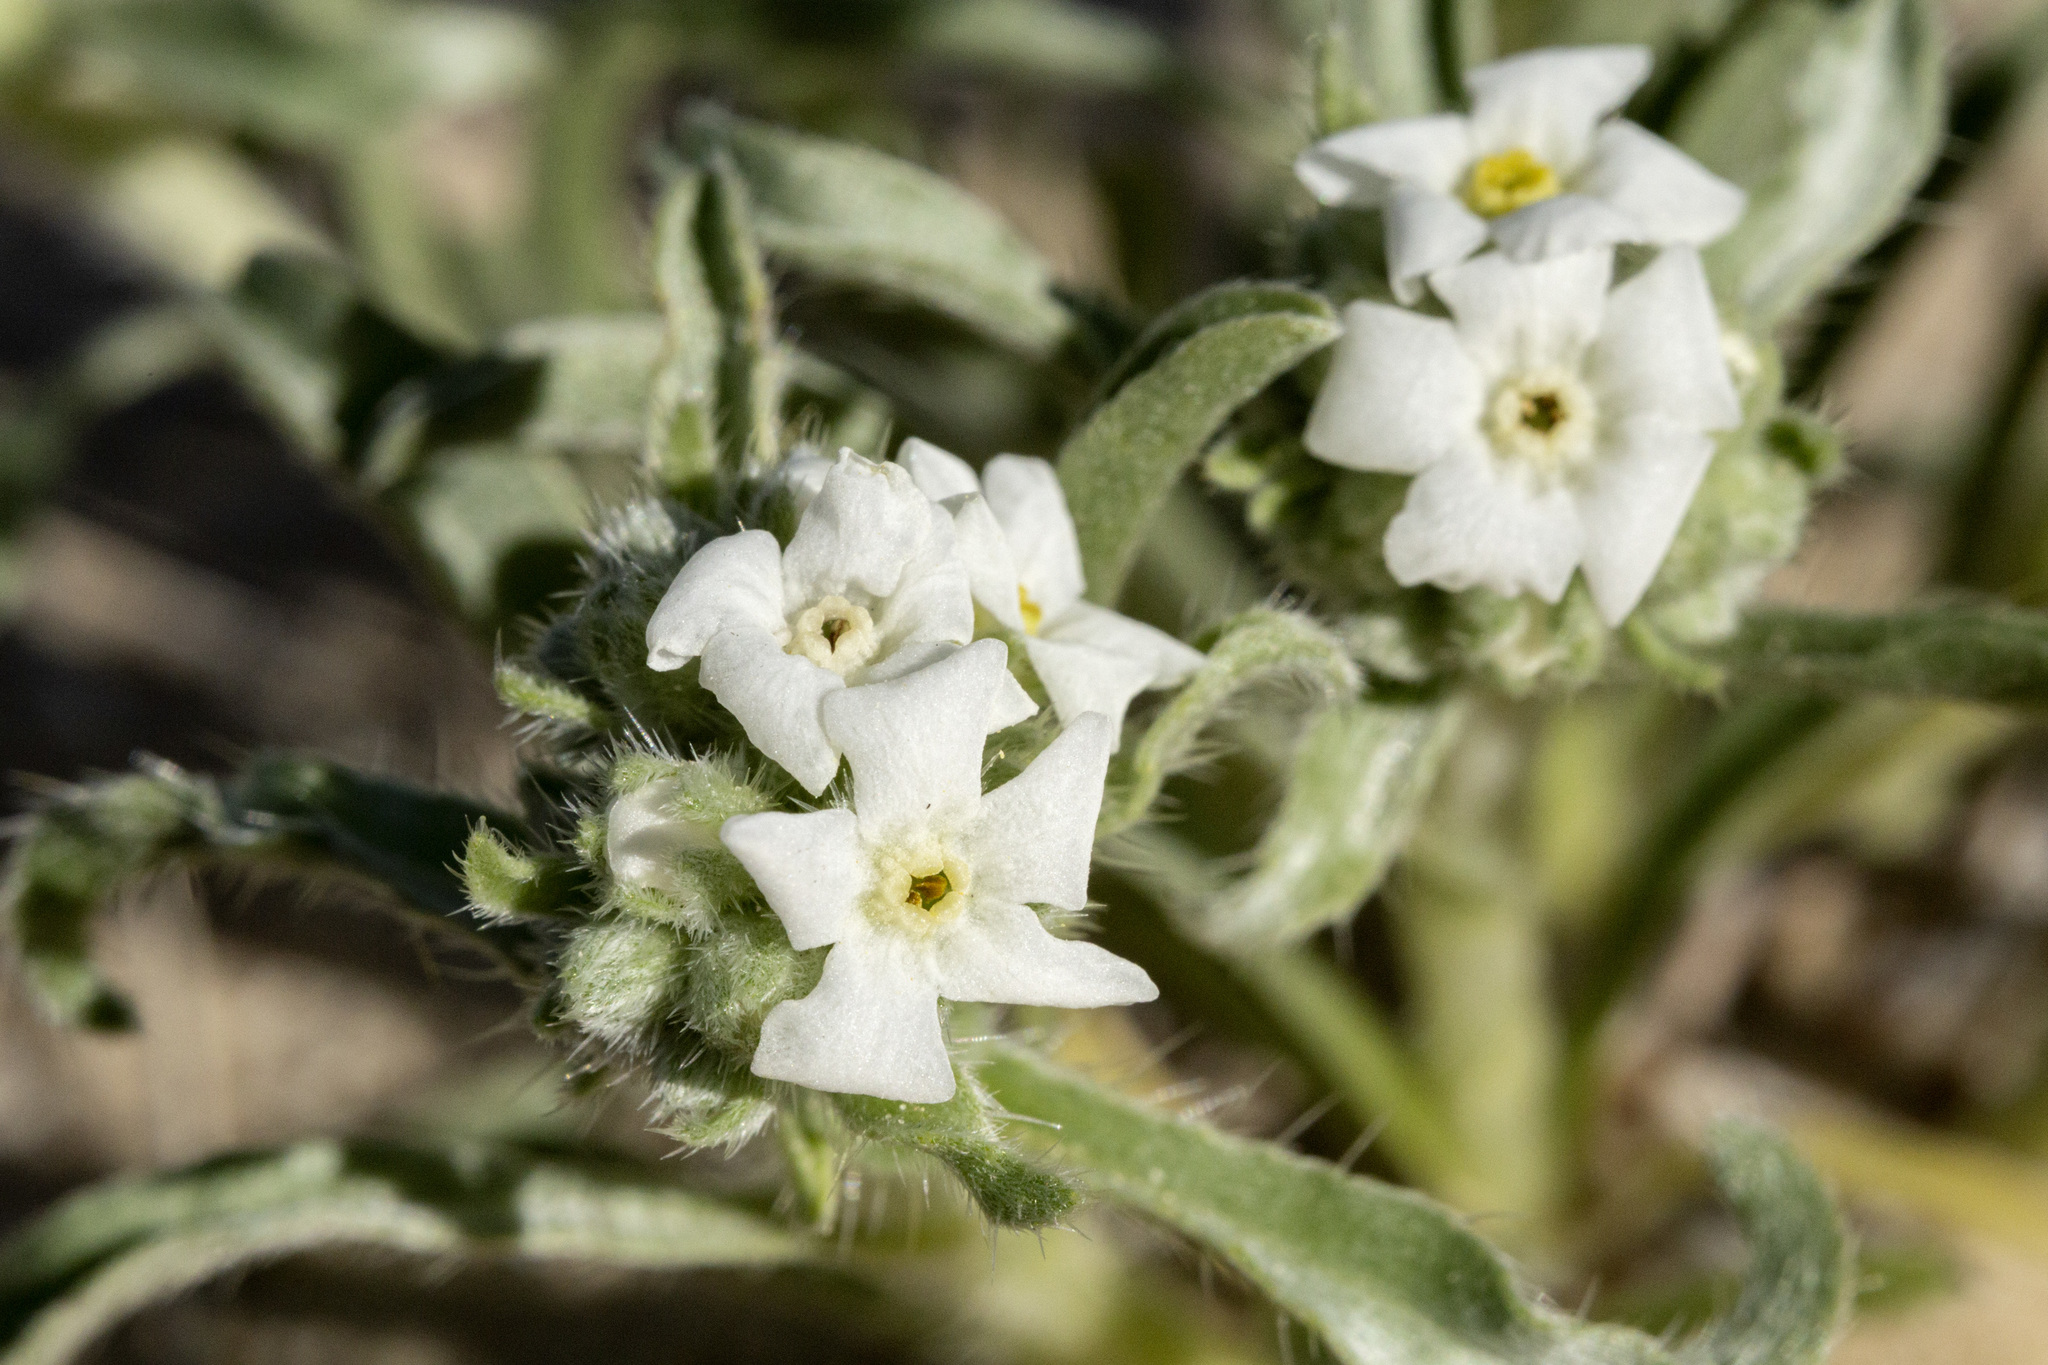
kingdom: Plantae
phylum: Tracheophyta
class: Magnoliopsida
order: Boraginales
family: Boraginaceae
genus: Oreocarya
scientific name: Oreocarya suffruticosa
